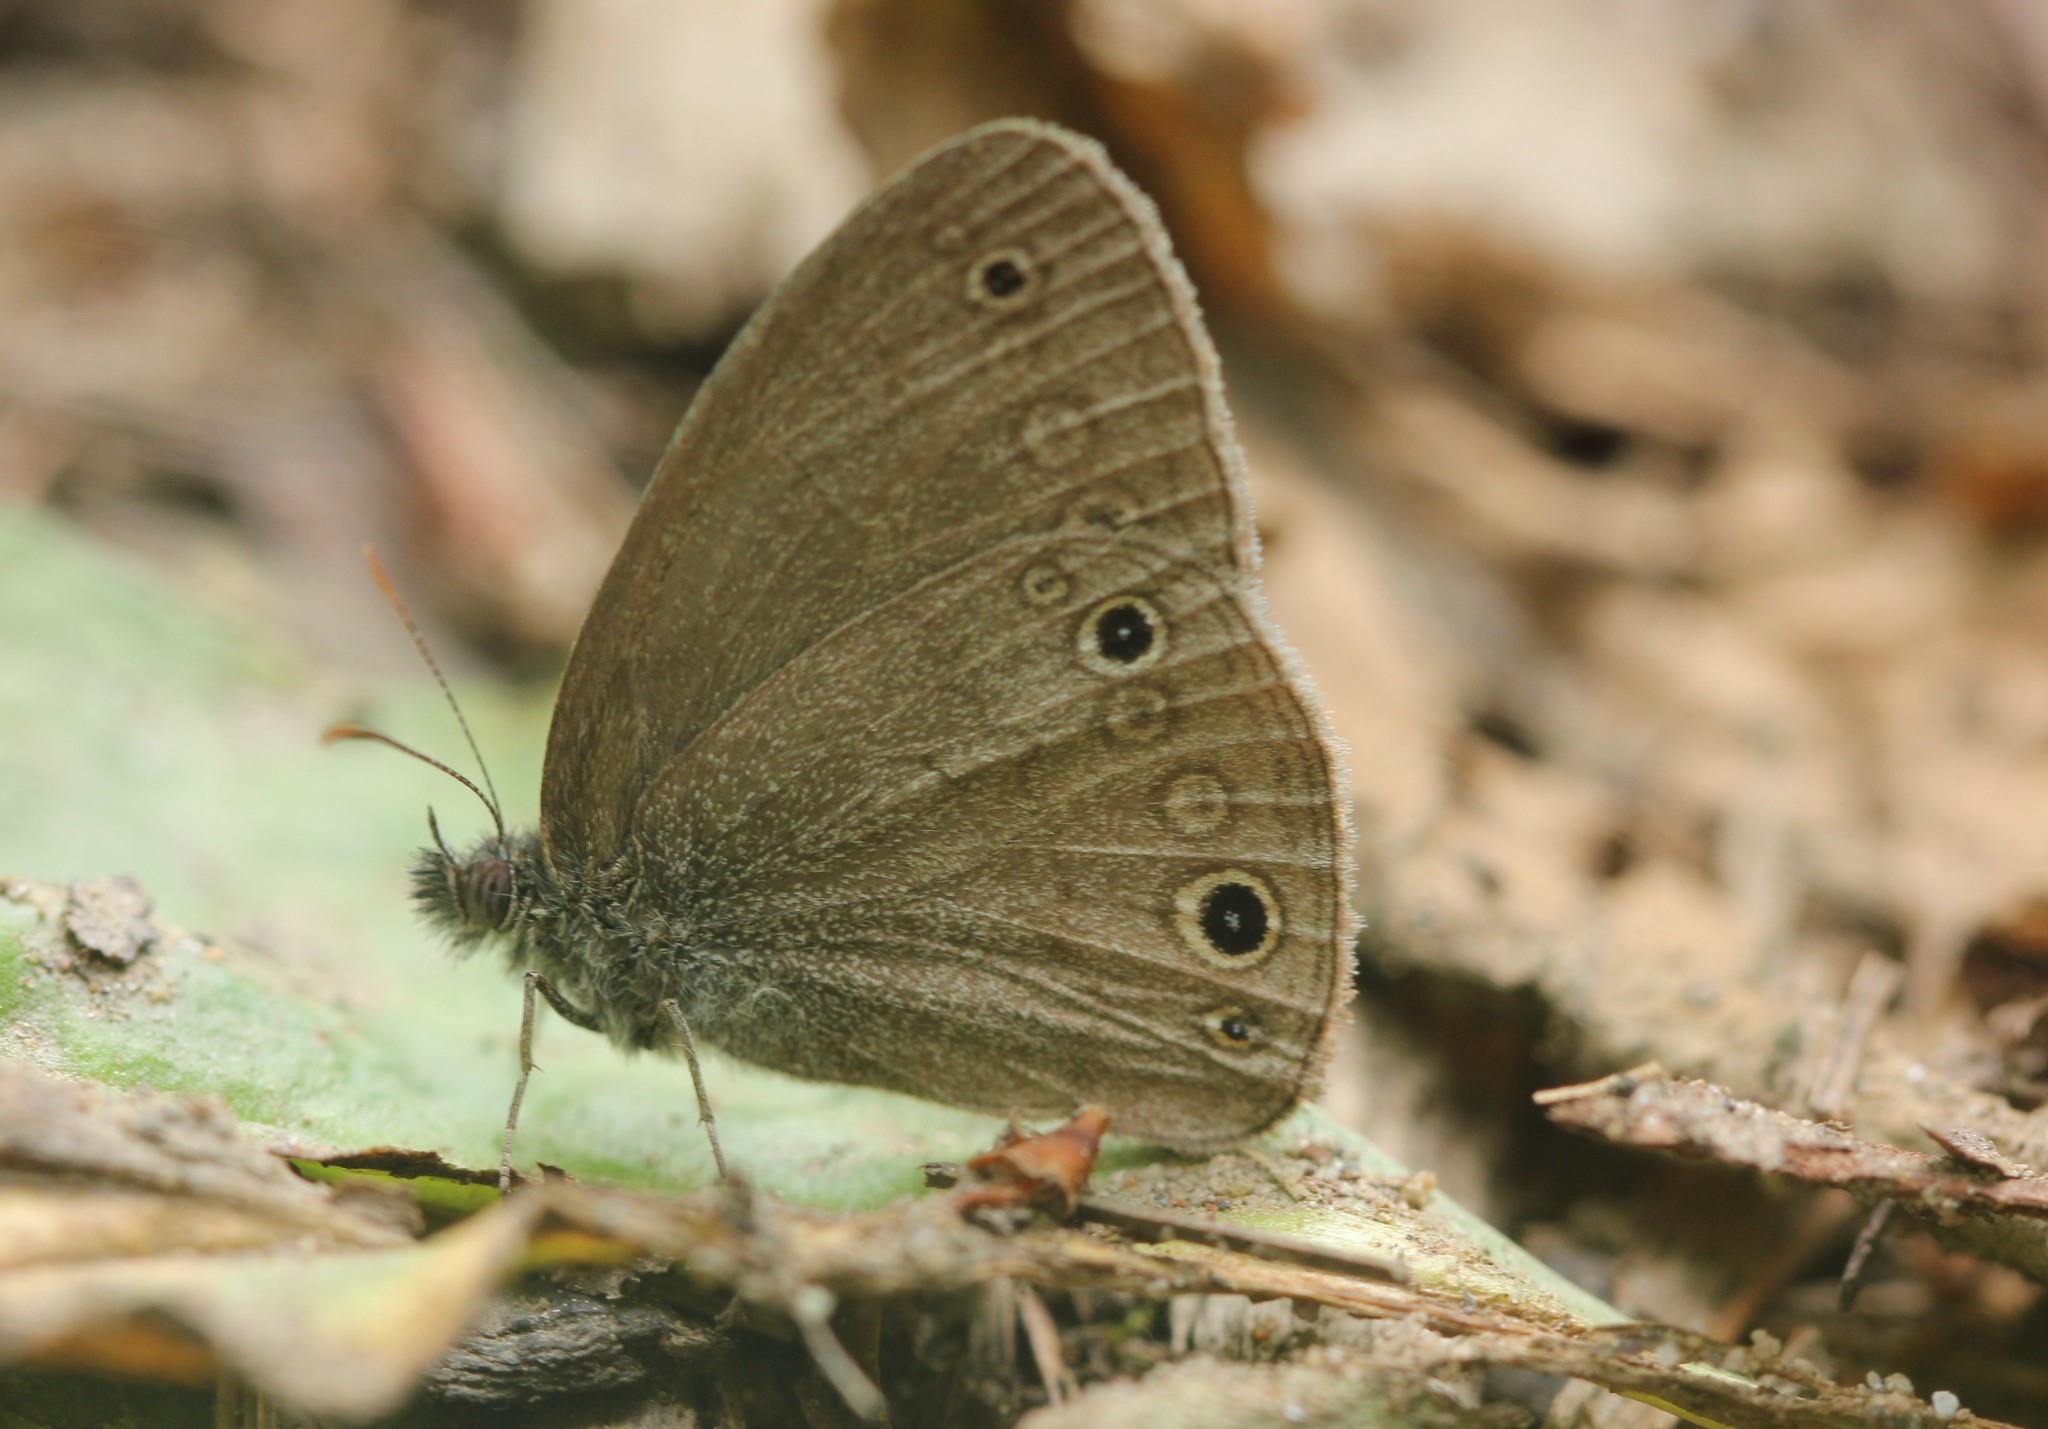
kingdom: Animalia
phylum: Arthropoda
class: Insecta
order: Lepidoptera
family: Nymphalidae
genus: Hermeuptychia
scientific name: Hermeuptychia hermes
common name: Hermes satyr
